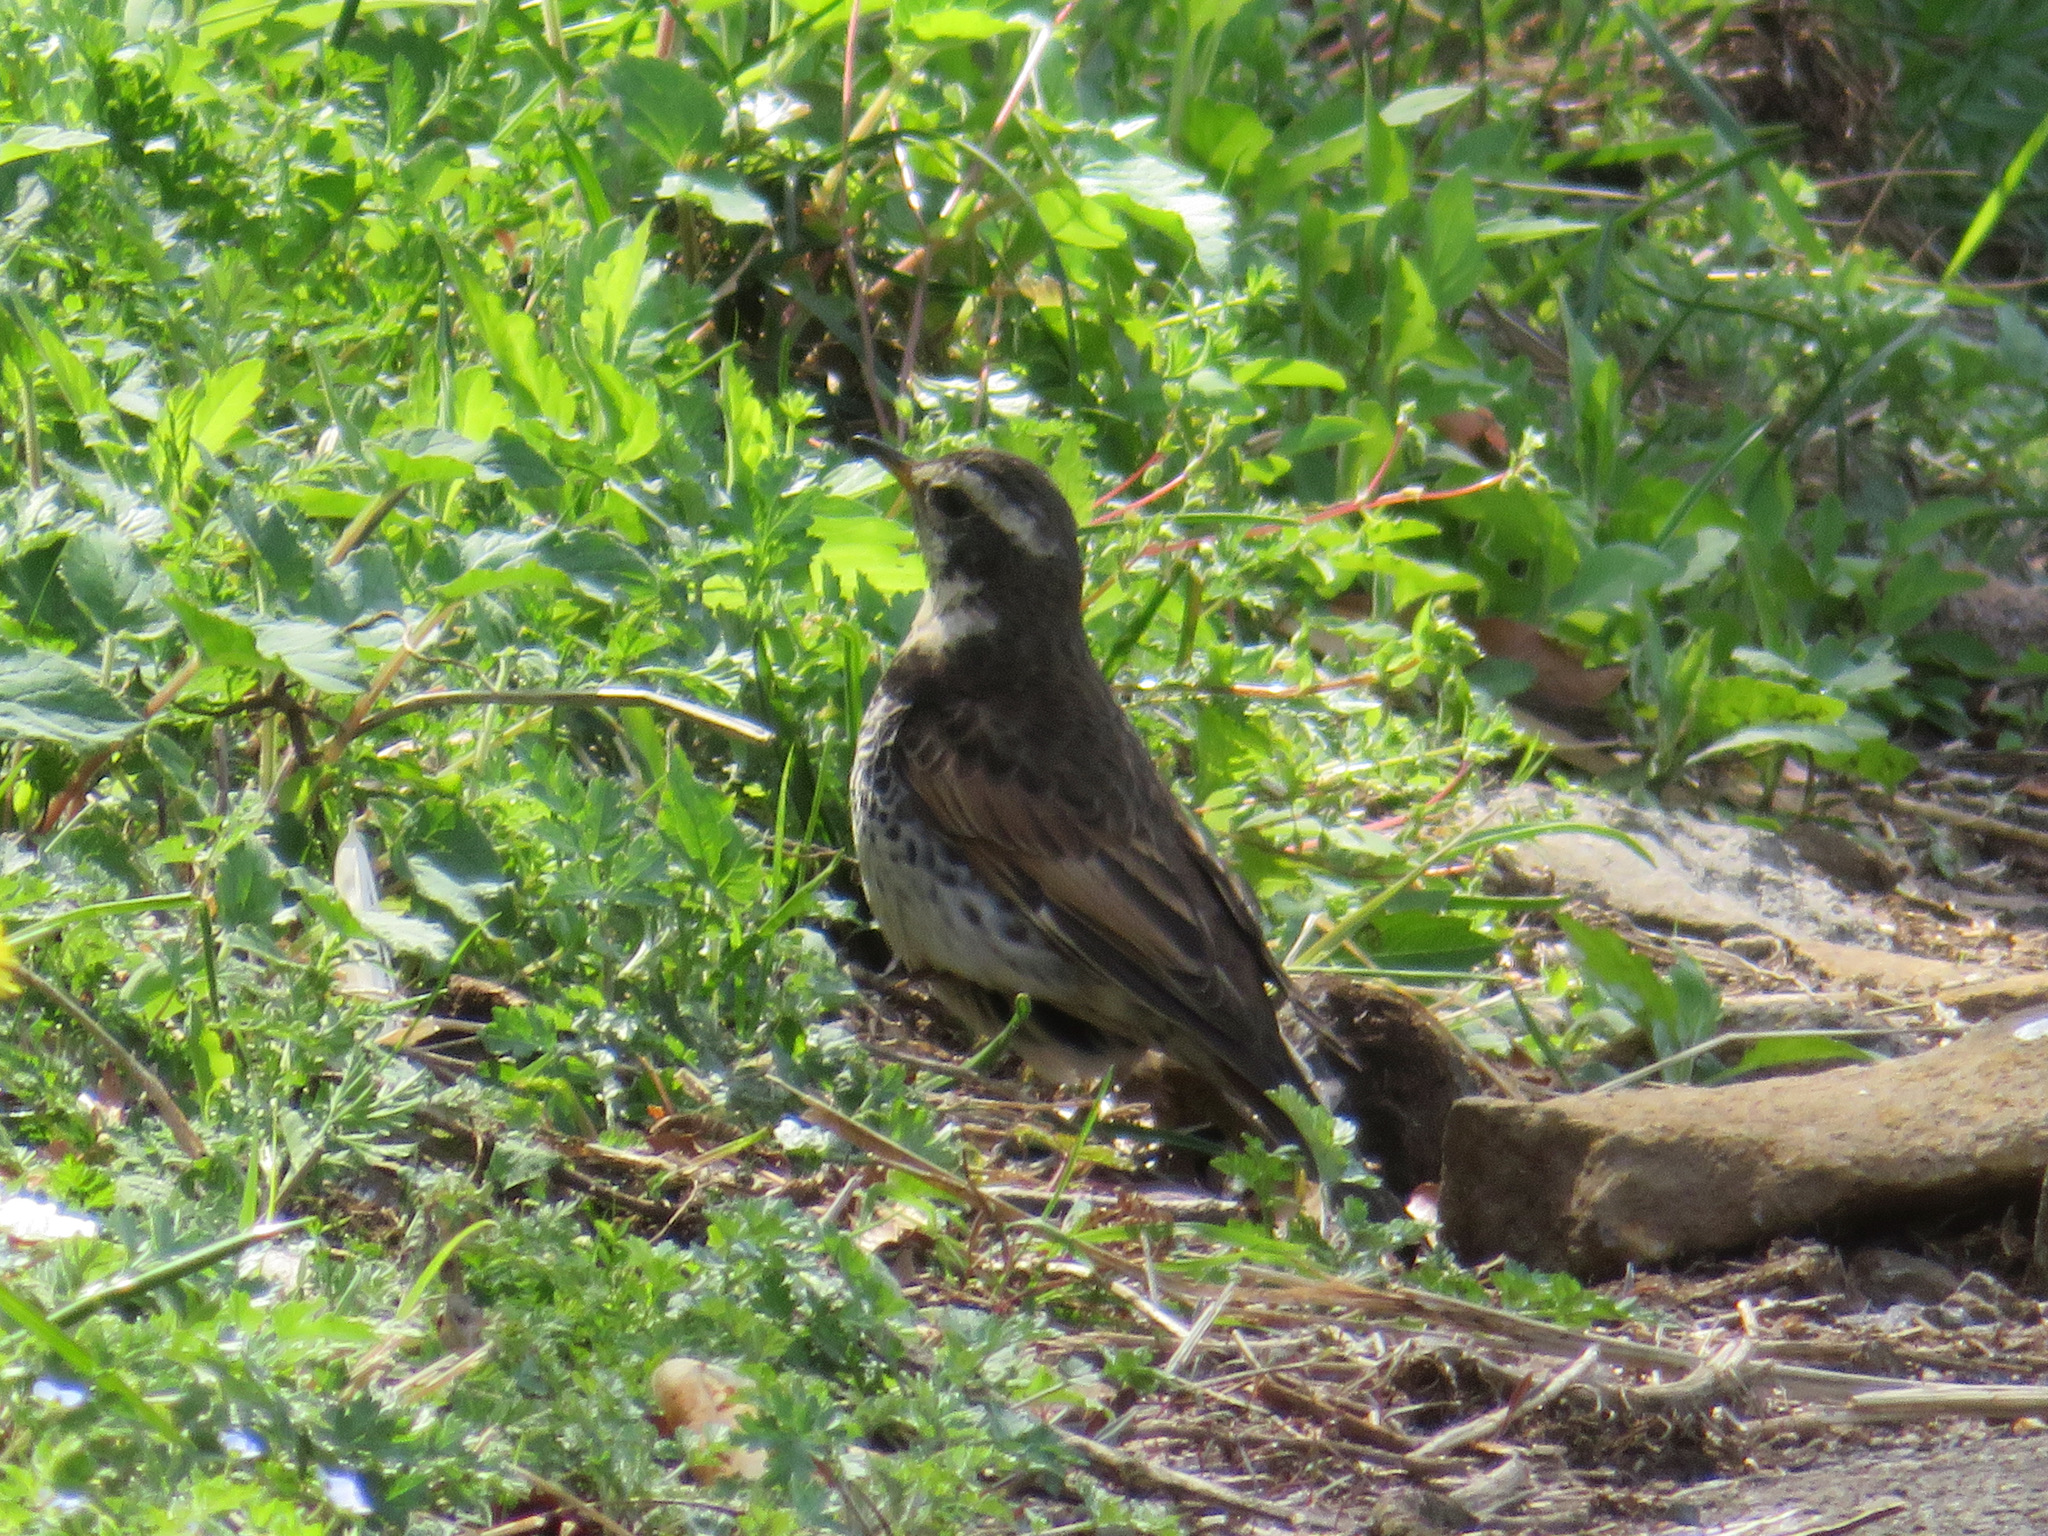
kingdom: Animalia
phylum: Chordata
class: Aves
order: Passeriformes
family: Turdidae
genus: Turdus
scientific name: Turdus eunomus
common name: Dusky thrush
